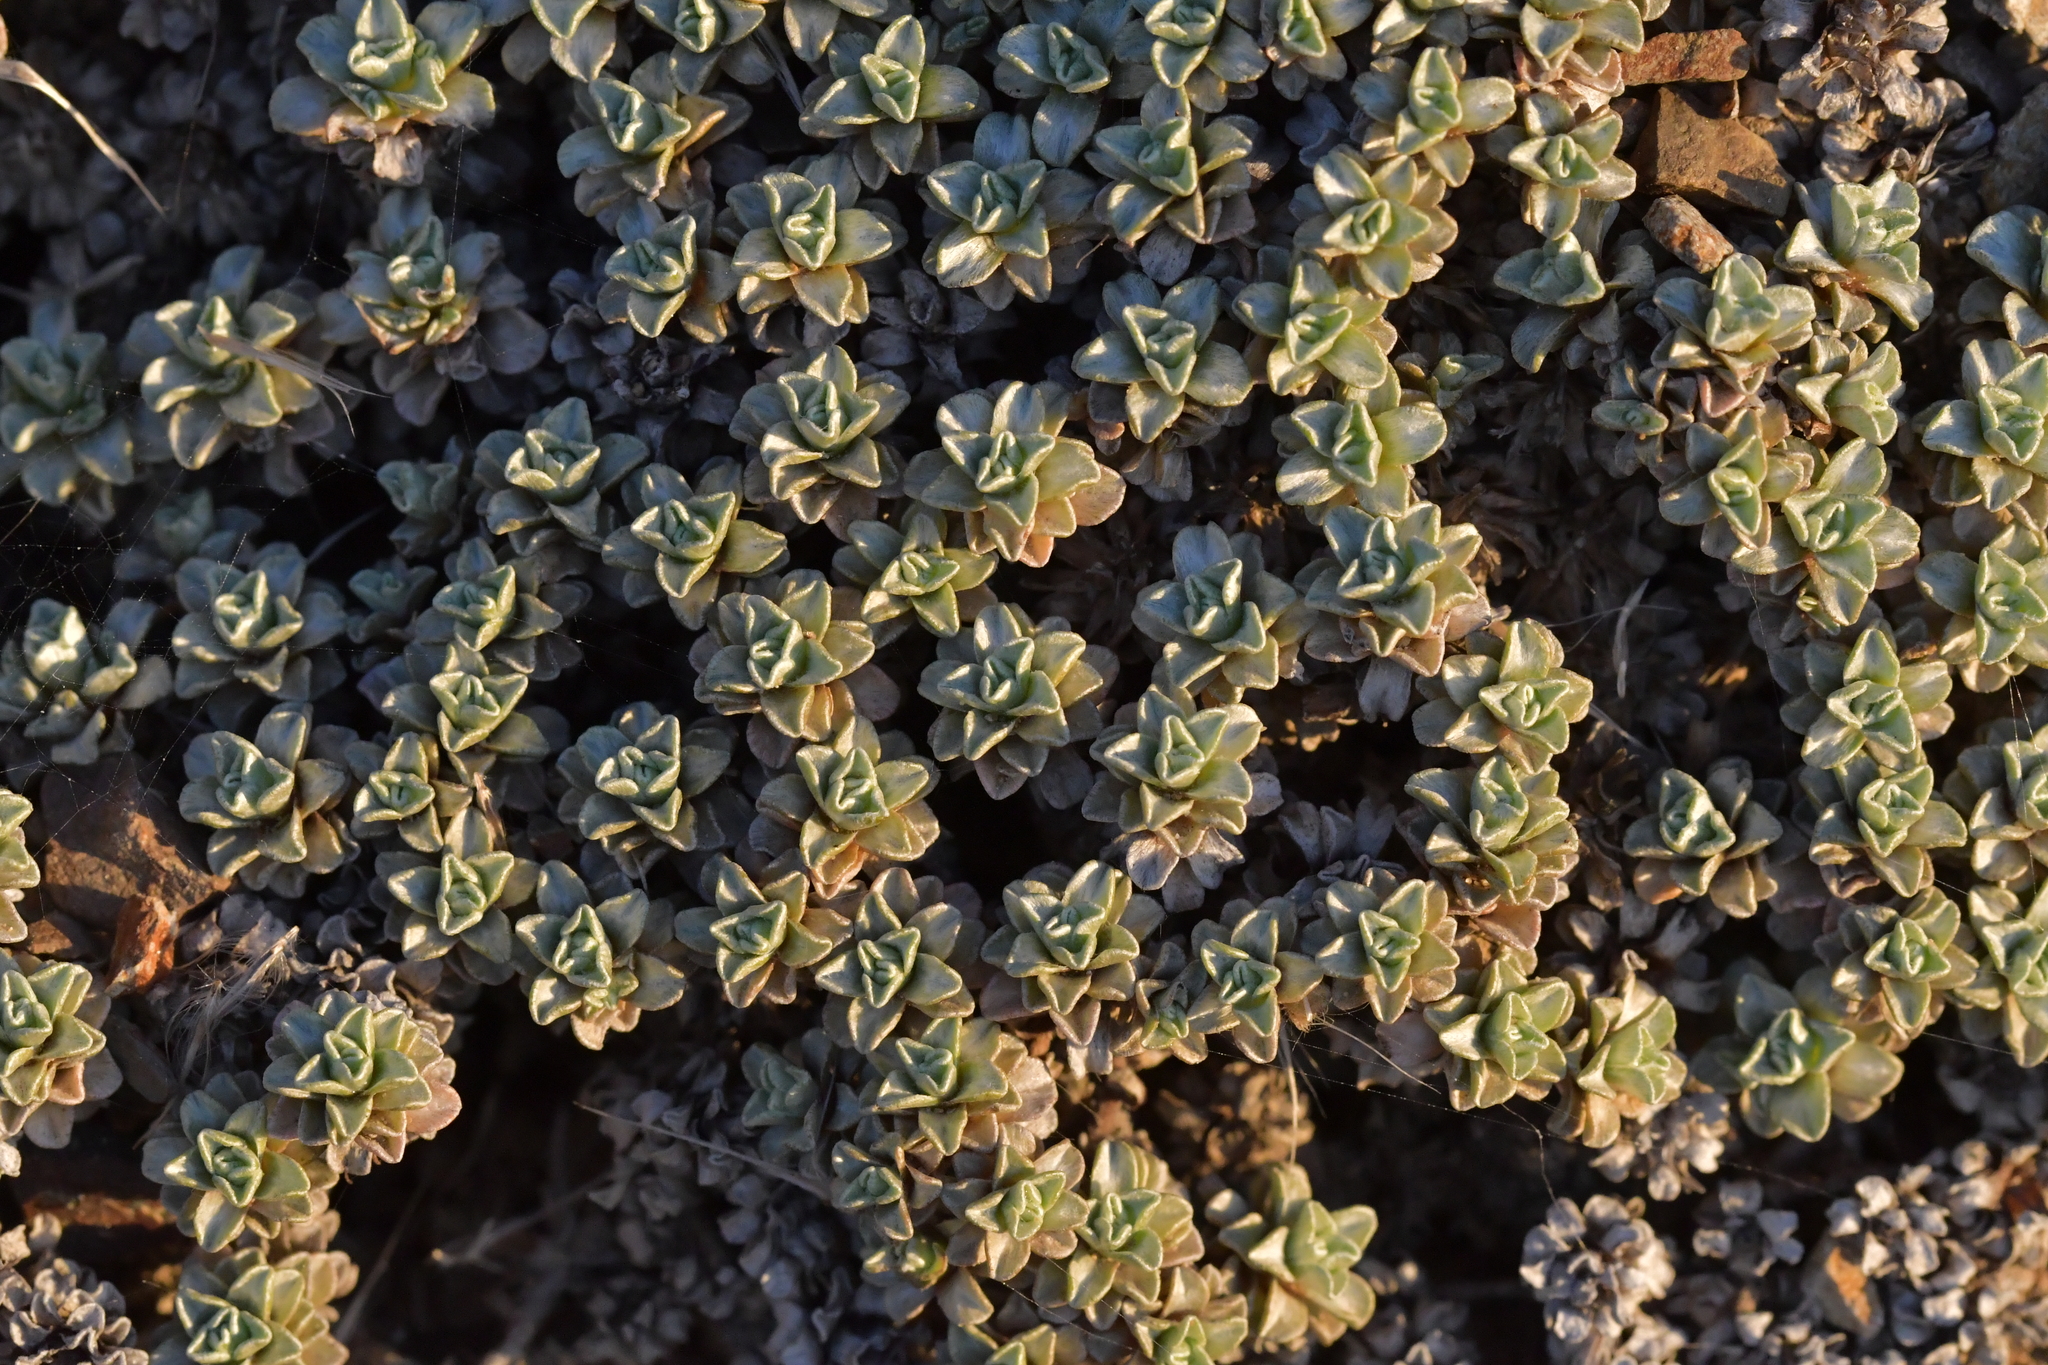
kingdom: Plantae
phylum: Tracheophyta
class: Magnoliopsida
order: Asterales
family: Asteraceae
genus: Raoulia
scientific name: Raoulia hookeri
